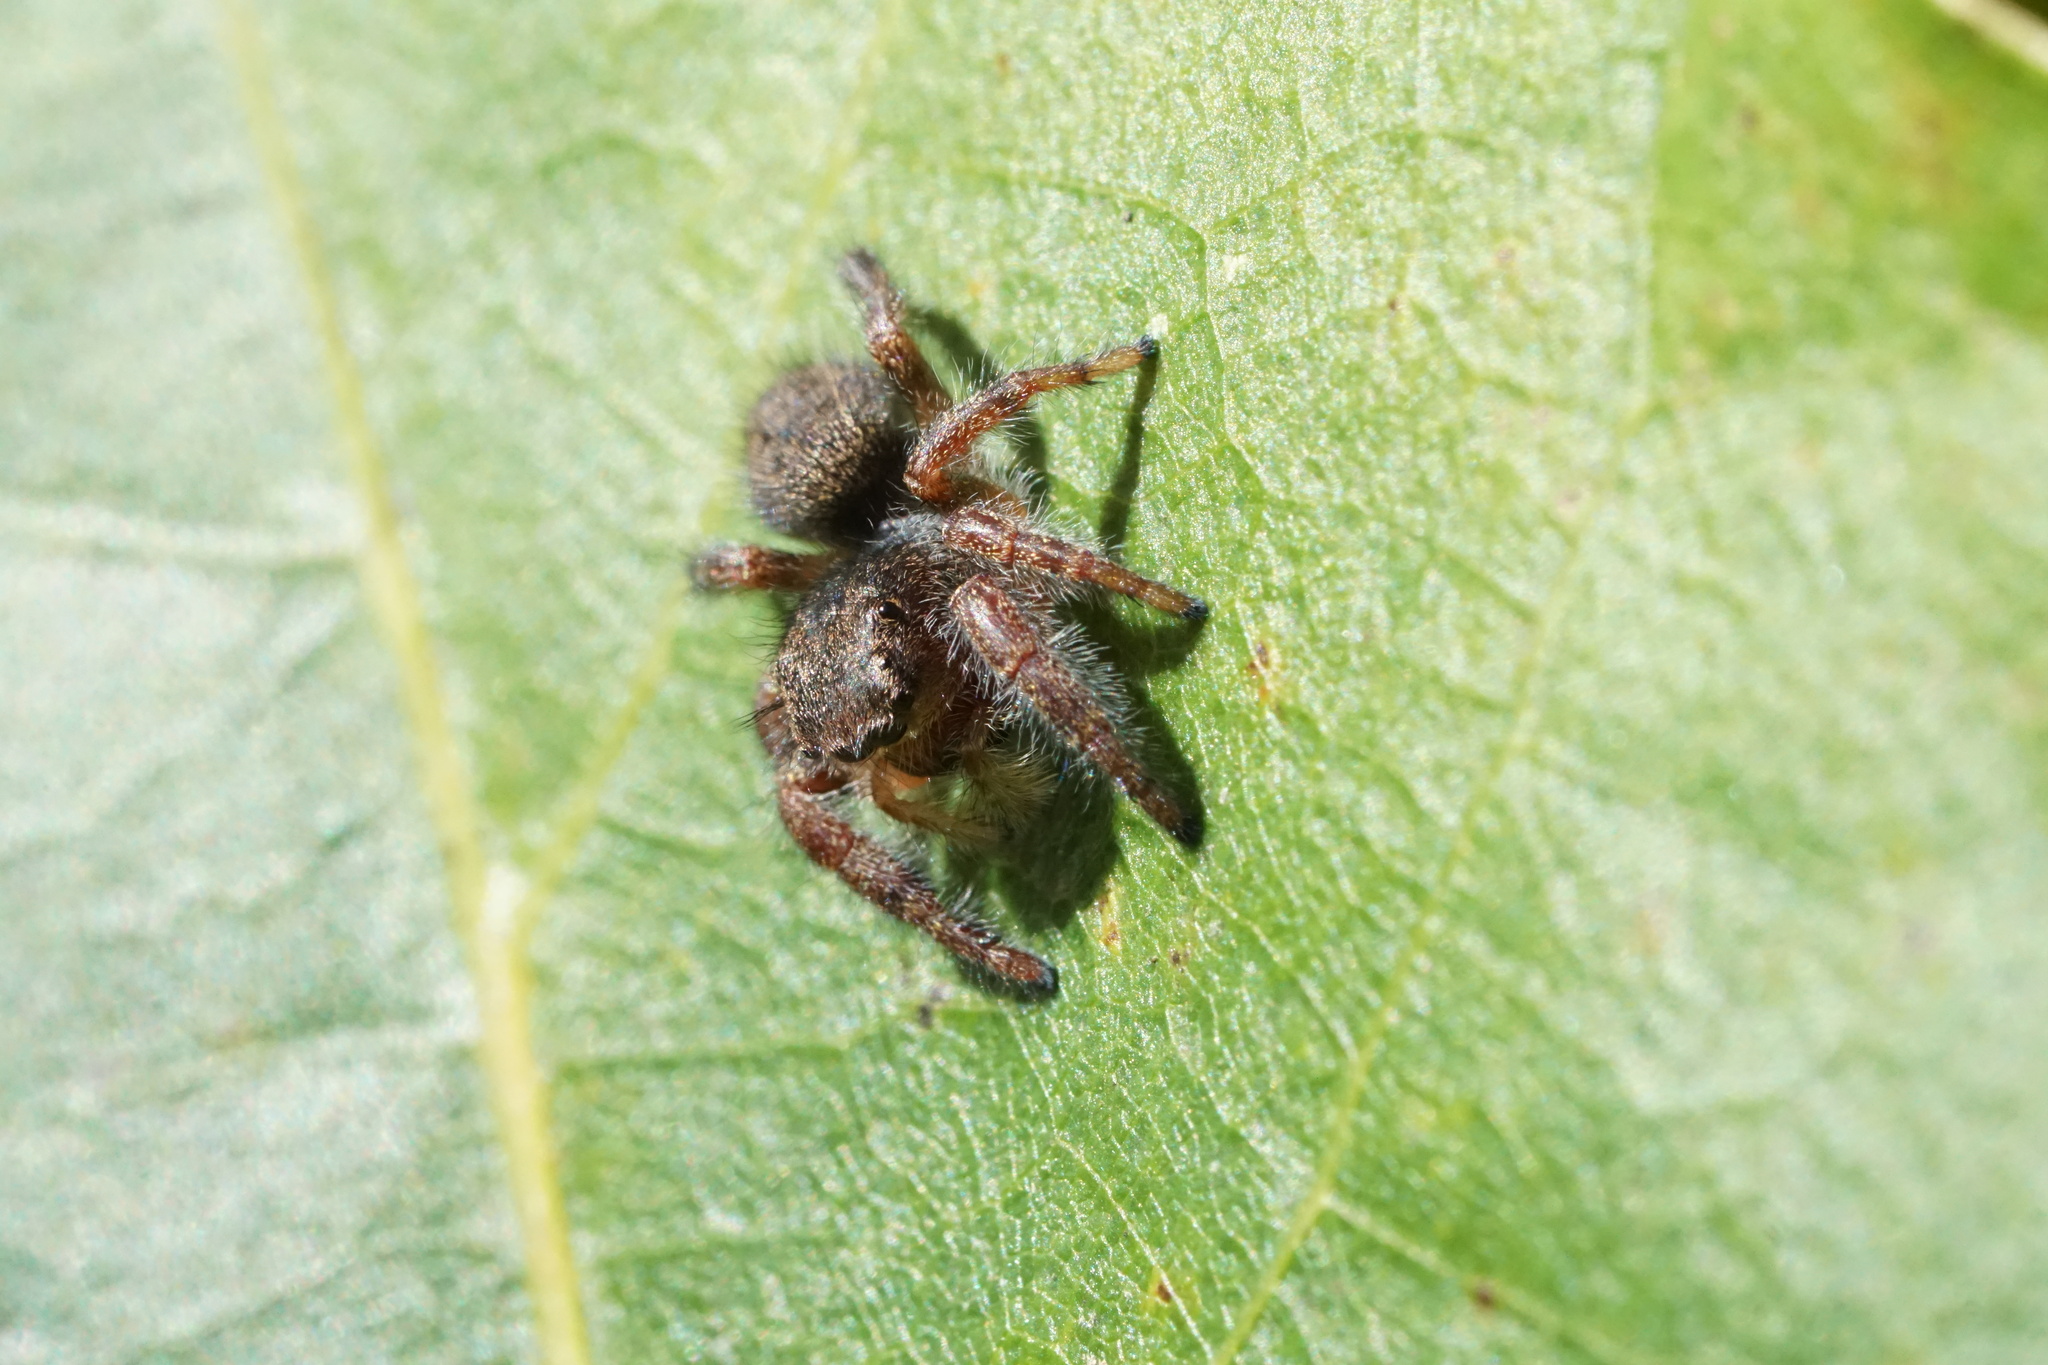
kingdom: Animalia
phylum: Arthropoda
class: Arachnida
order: Araneae
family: Salticidae
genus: Phidippus
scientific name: Phidippus princeps
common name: Grayish jumping spider
